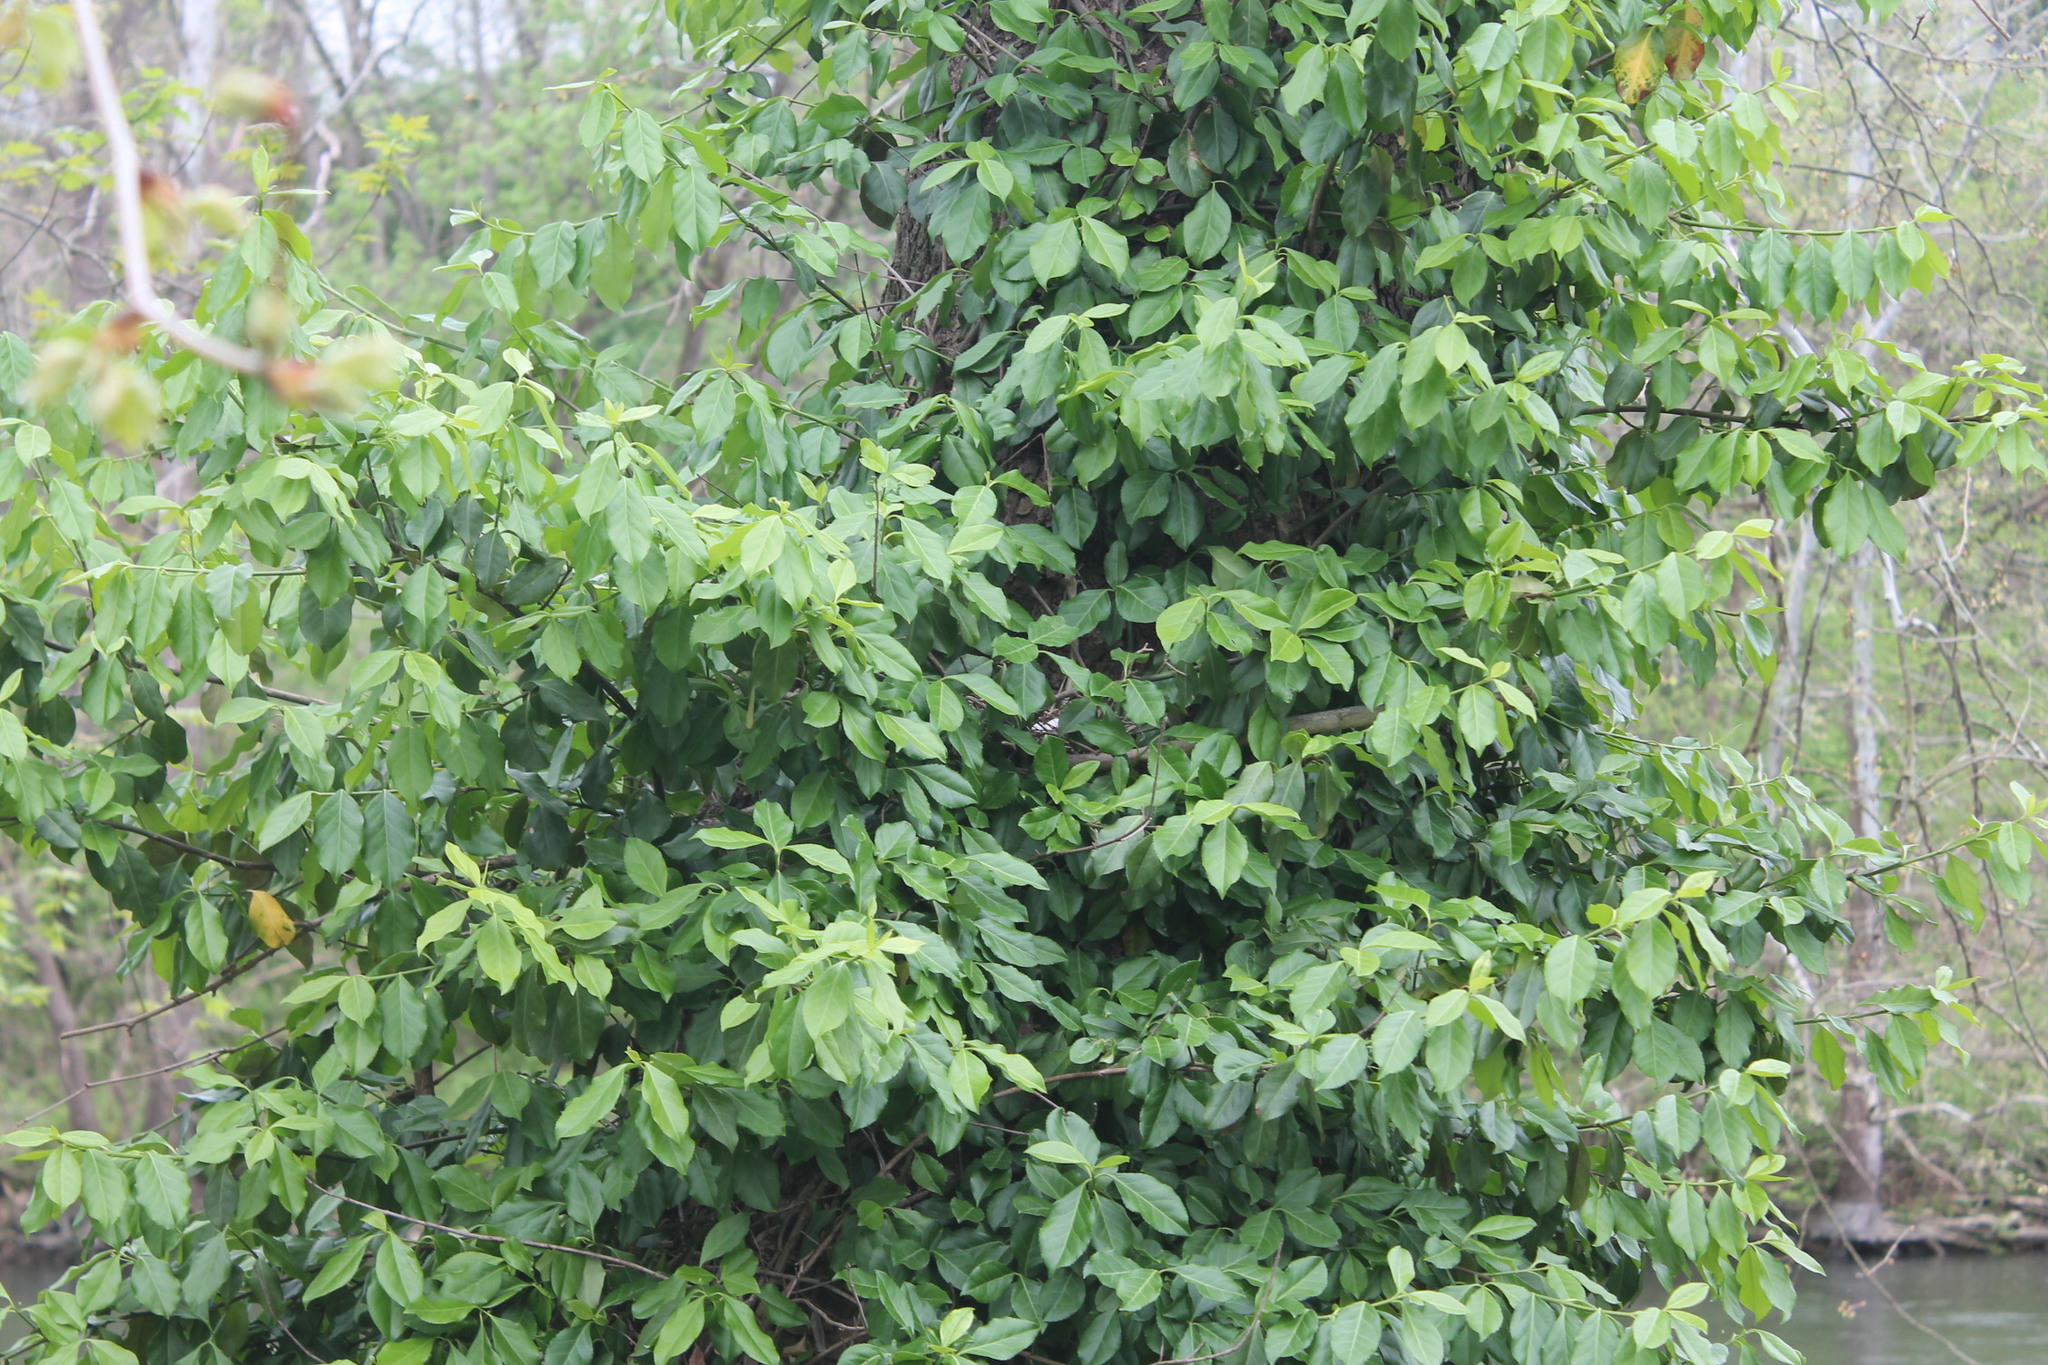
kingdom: Animalia
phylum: Chordata
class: Aves
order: Columbiformes
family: Columbidae
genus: Zenaida
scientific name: Zenaida macroura
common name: Mourning dove
